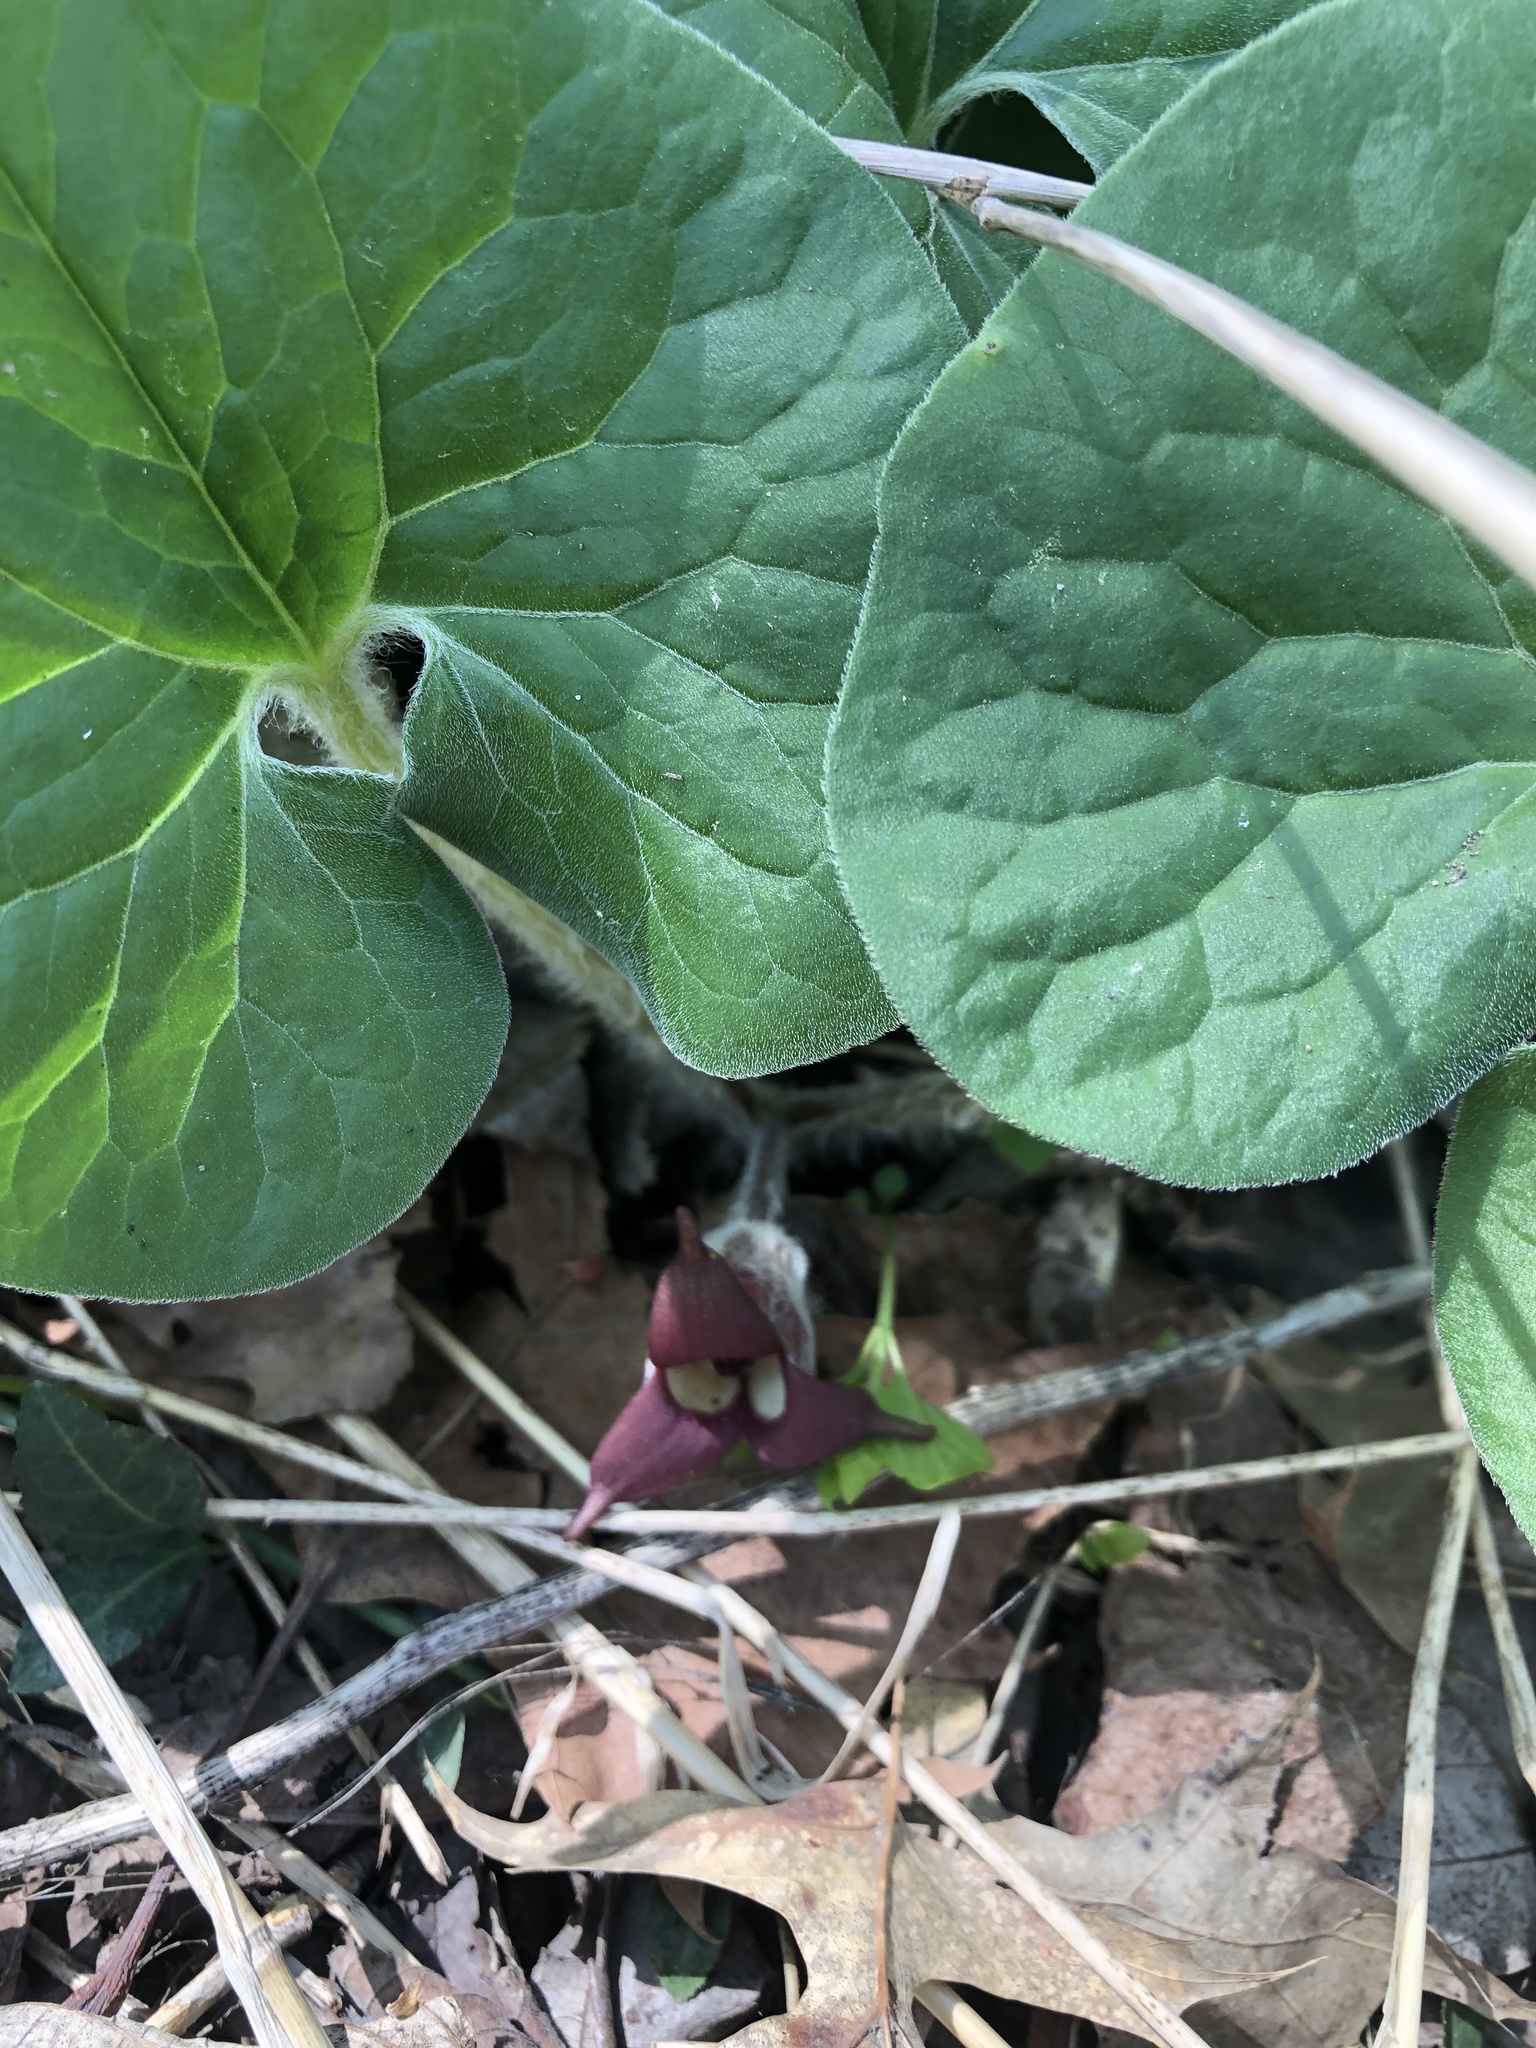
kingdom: Plantae
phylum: Tracheophyta
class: Magnoliopsida
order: Piperales
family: Aristolochiaceae
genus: Asarum
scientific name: Asarum canadense
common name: Wild ginger
